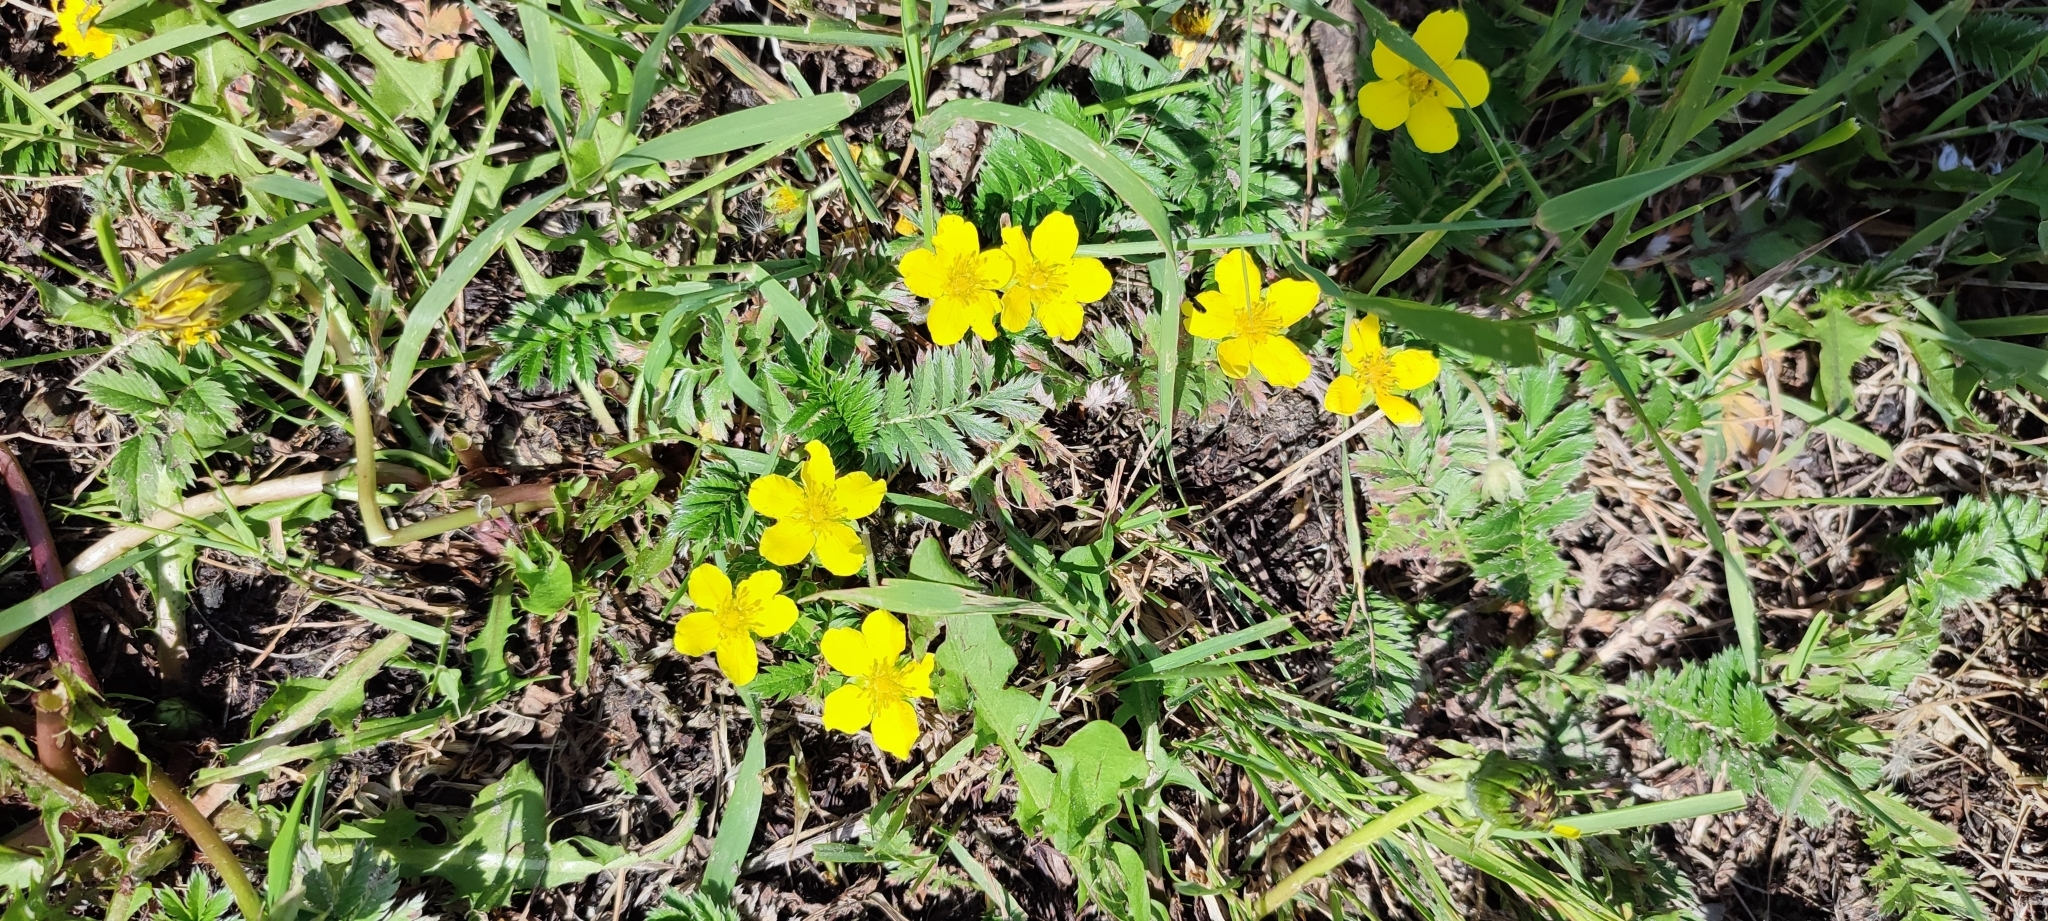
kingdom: Plantae
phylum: Tracheophyta
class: Magnoliopsida
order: Rosales
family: Rosaceae
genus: Argentina
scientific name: Argentina anserina
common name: Common silverweed
